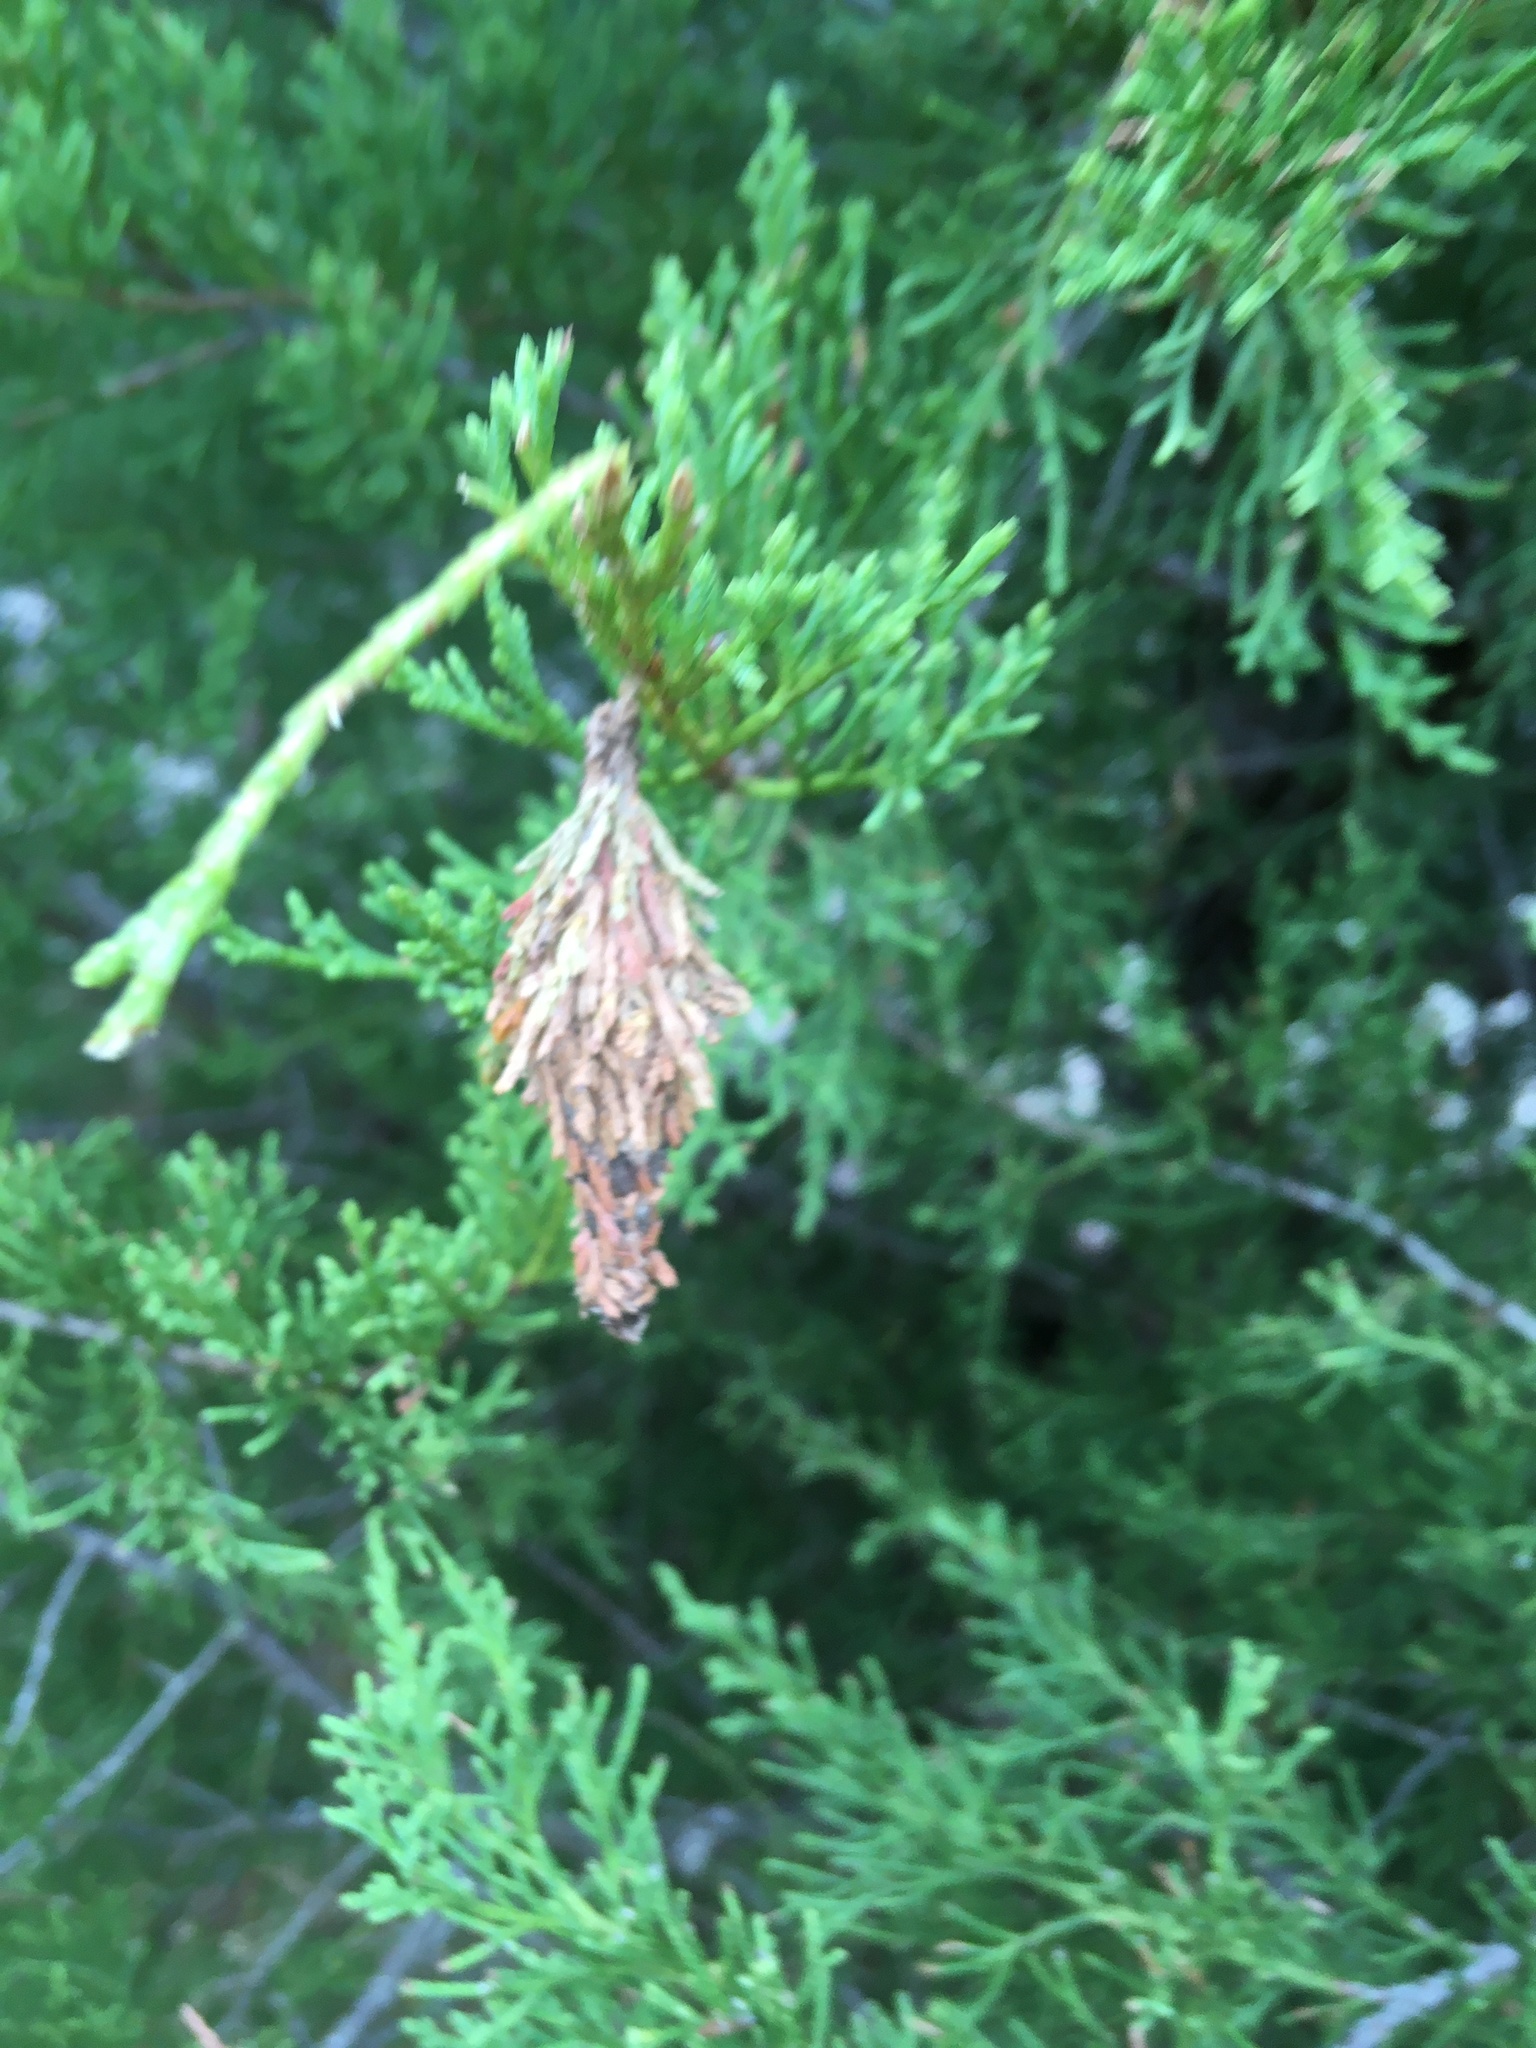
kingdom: Animalia
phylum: Arthropoda
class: Insecta
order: Lepidoptera
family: Psychidae
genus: Thyridopteryx
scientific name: Thyridopteryx ephemeraeformis
